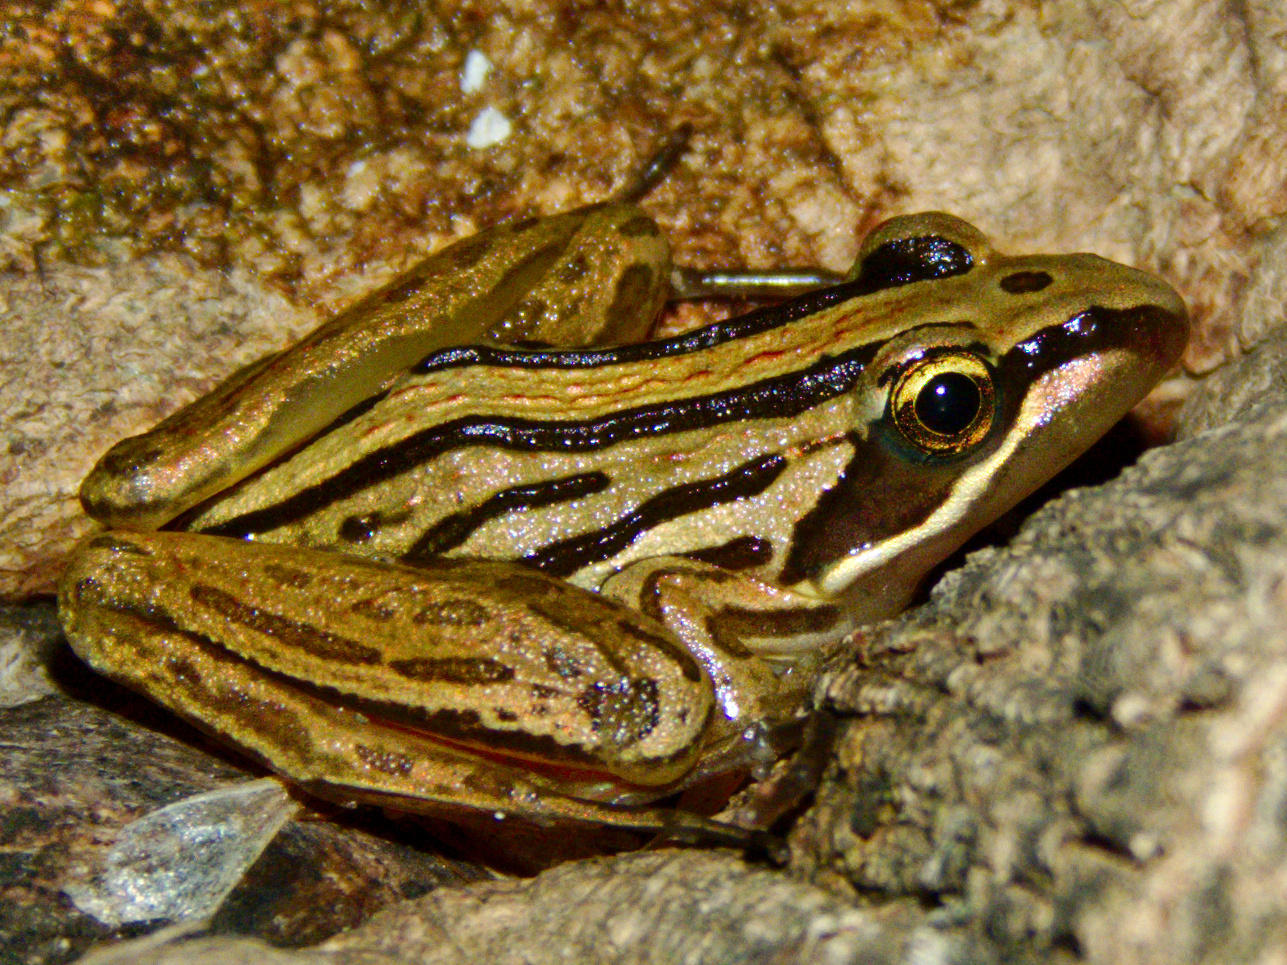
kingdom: Animalia
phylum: Chordata
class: Amphibia
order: Anura
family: Pyxicephalidae
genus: Strongylopus
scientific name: Strongylopus fasciatus
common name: Striped stream frog
